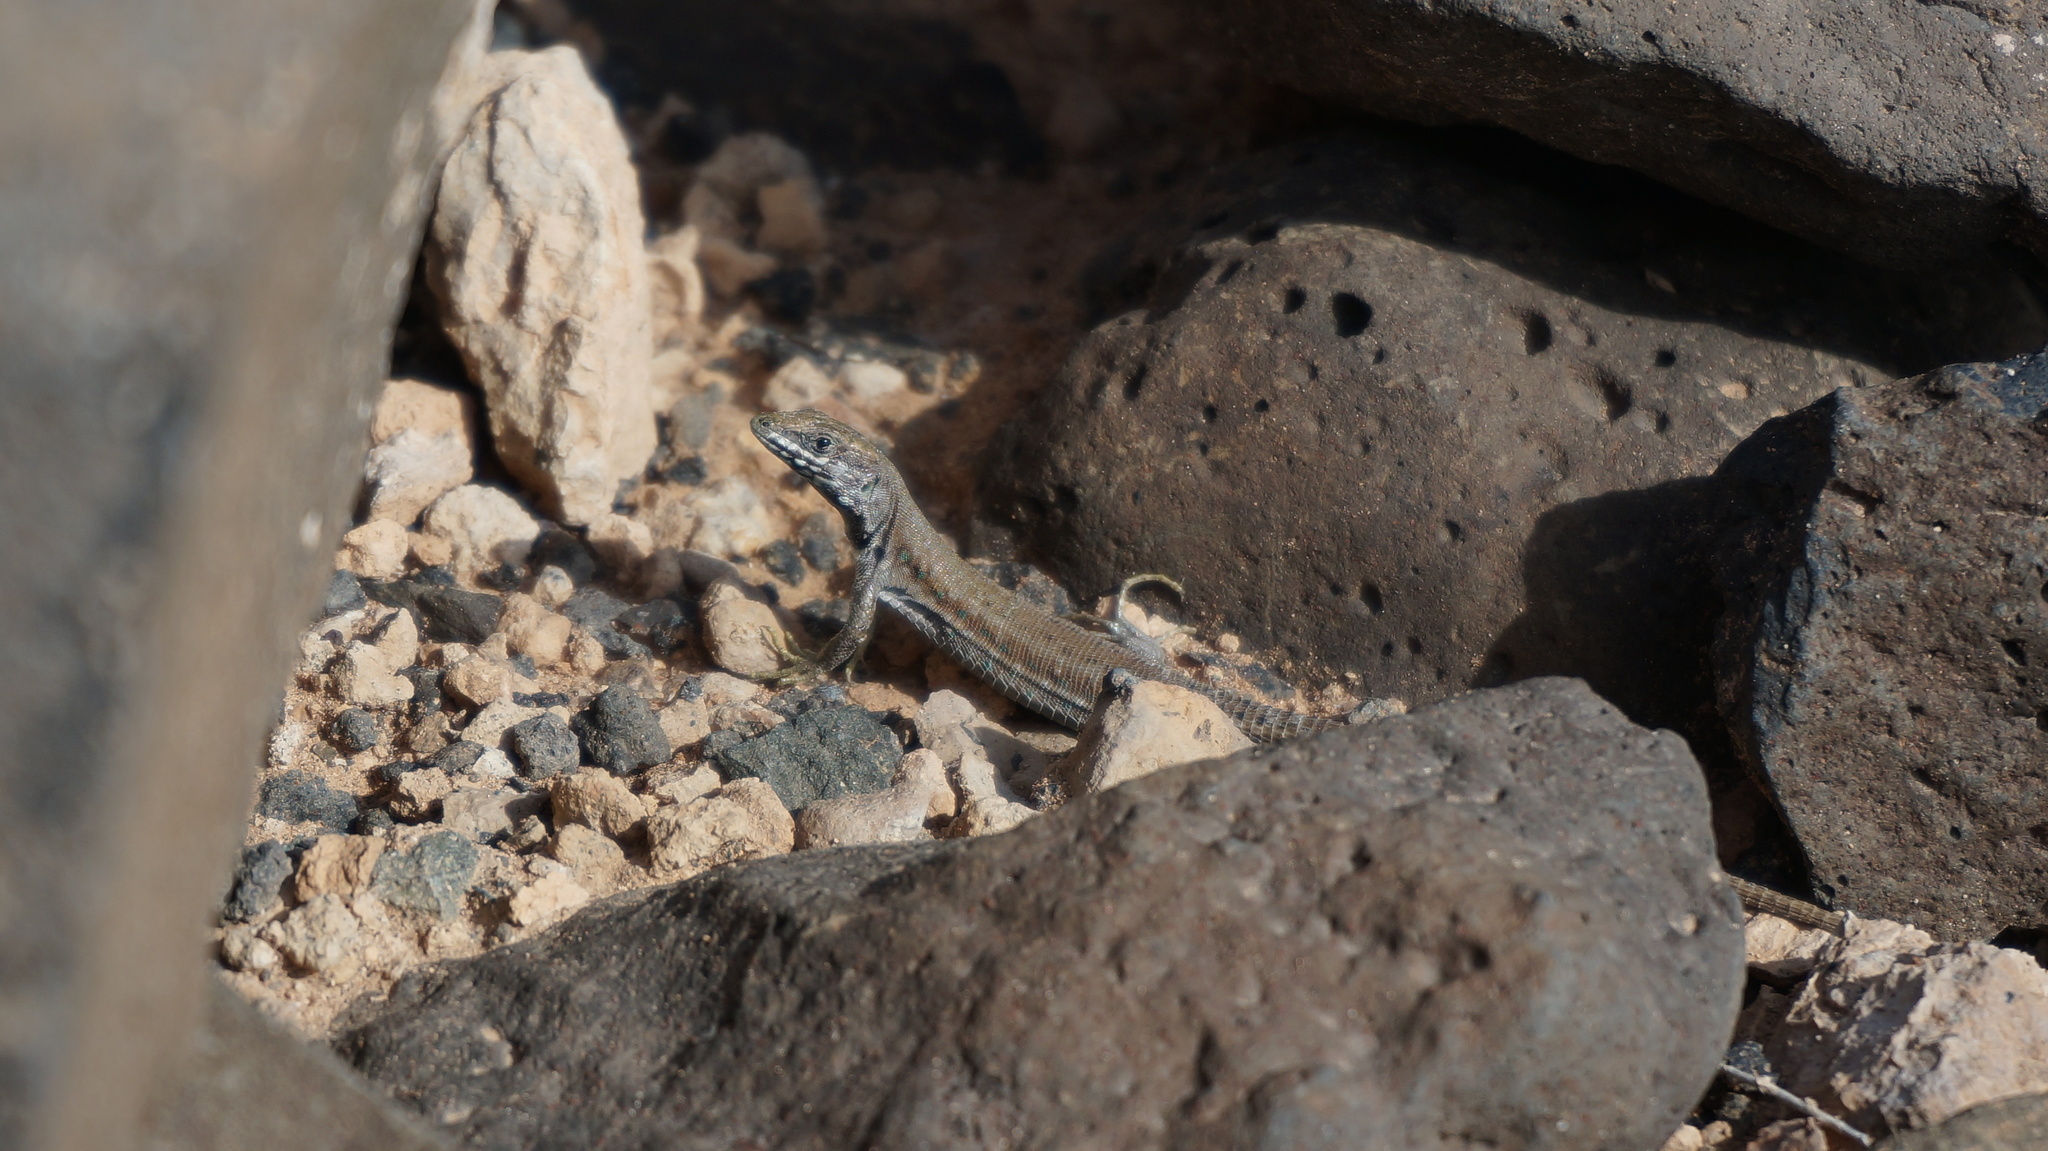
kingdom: Animalia
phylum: Chordata
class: Squamata
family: Lacertidae
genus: Gallotia
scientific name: Gallotia atlantica
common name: Atlantic lizard
